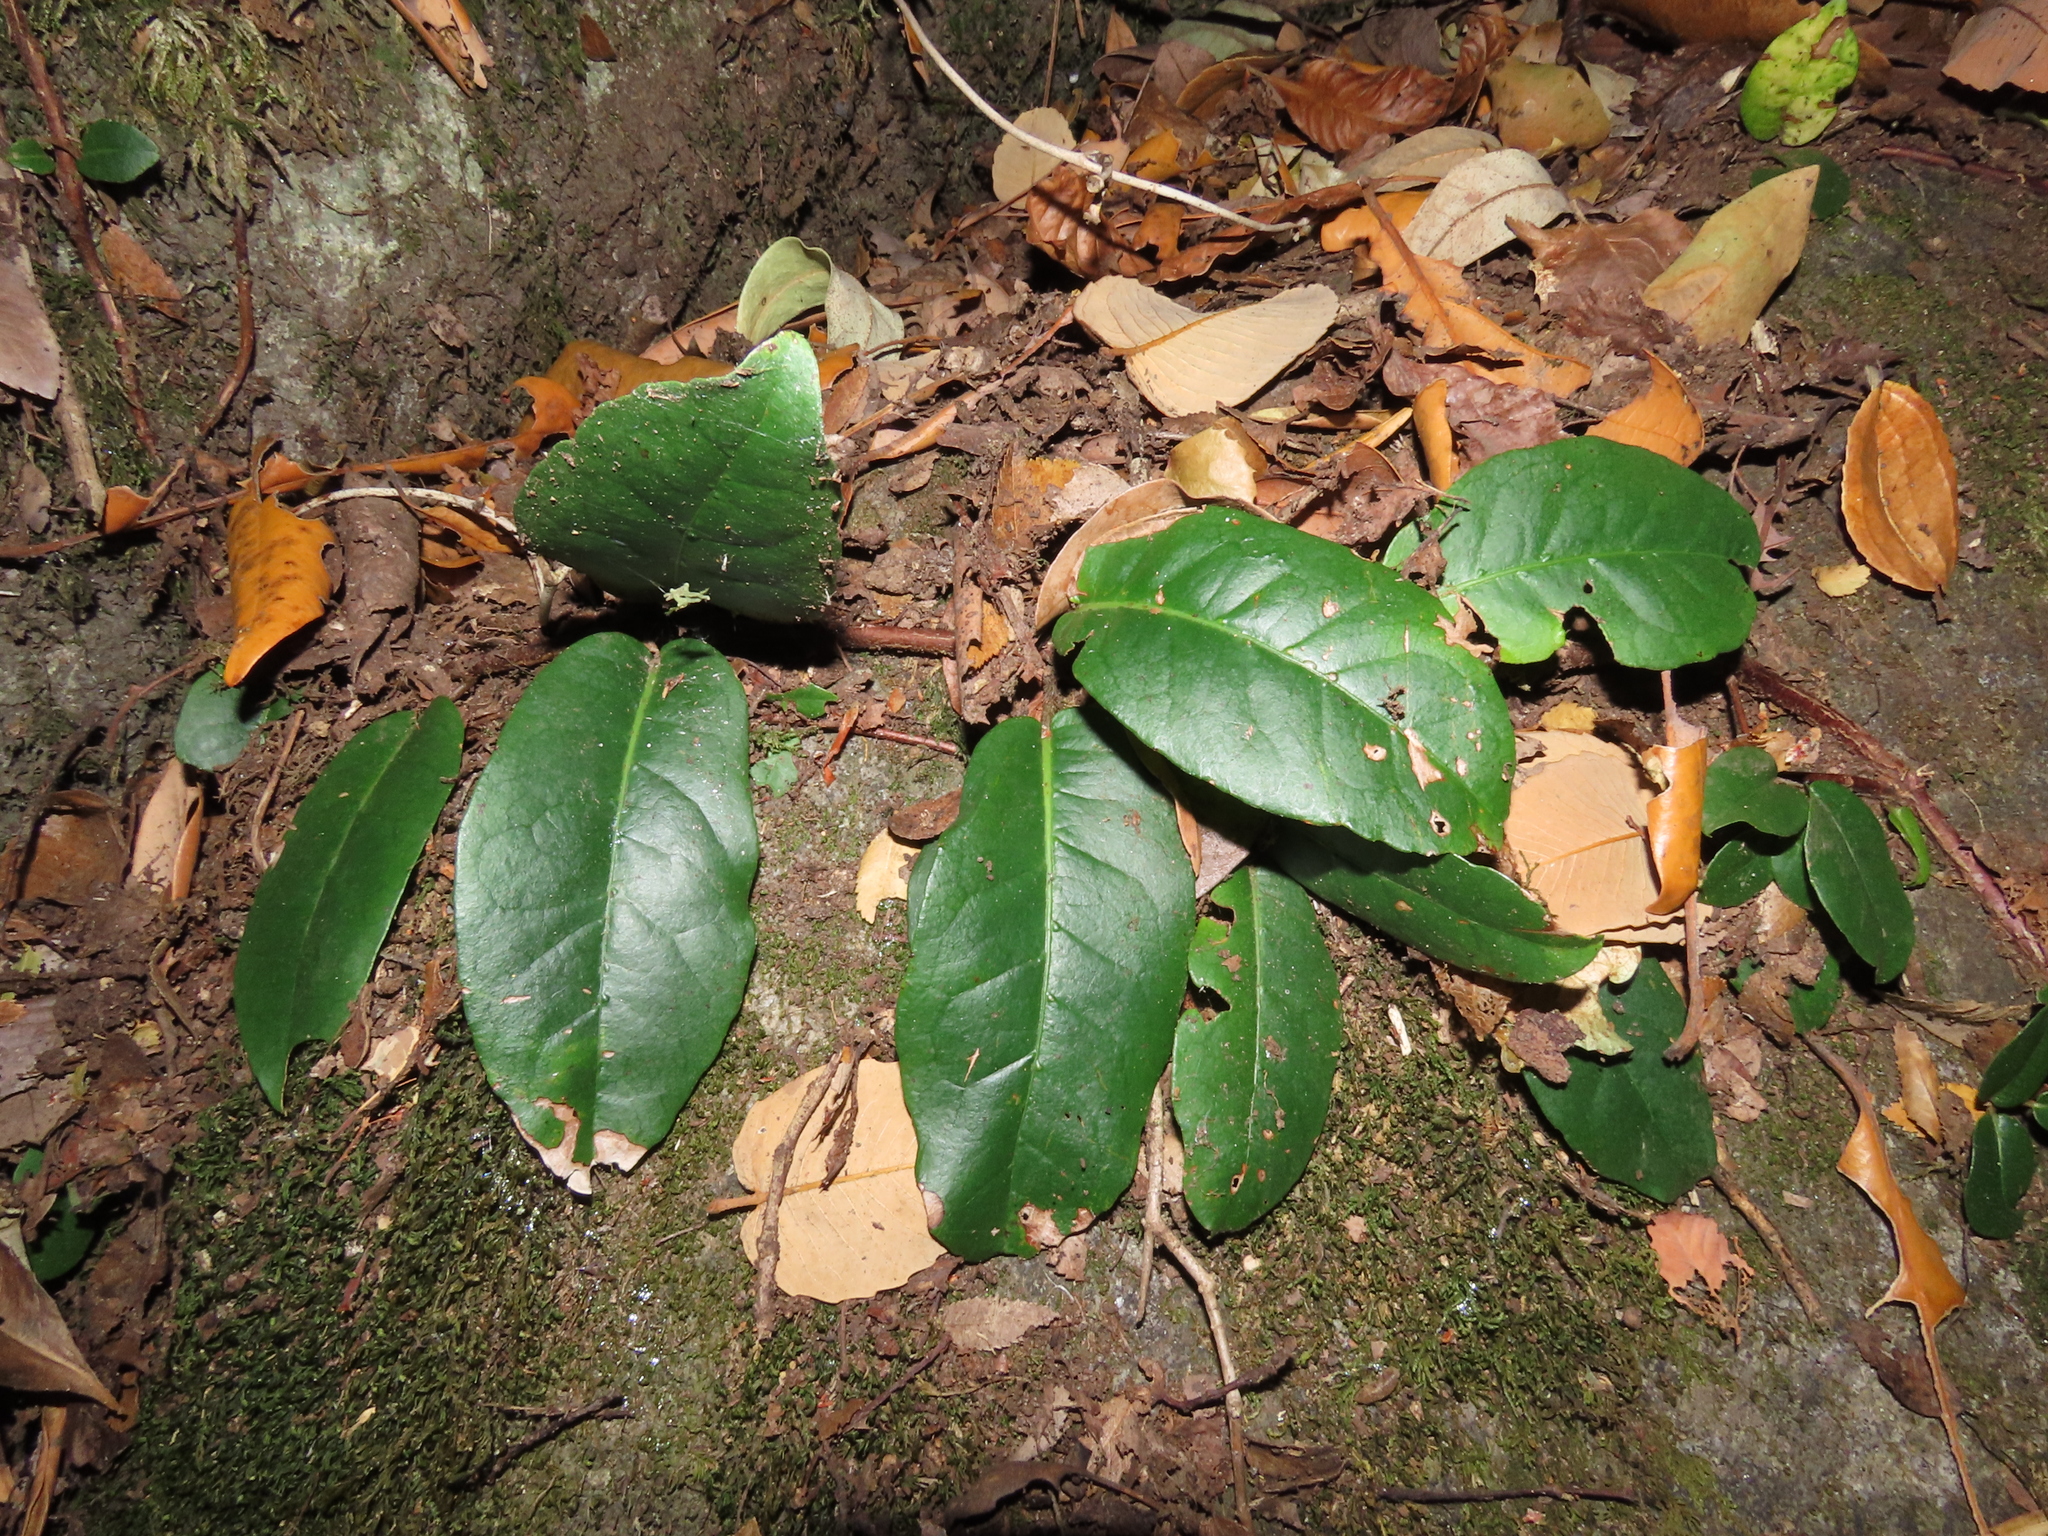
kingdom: Plantae
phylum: Tracheophyta
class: Magnoliopsida
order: Cornales
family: Hydrangeaceae
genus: Hydrangea
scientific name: Hydrangea serratifolia
